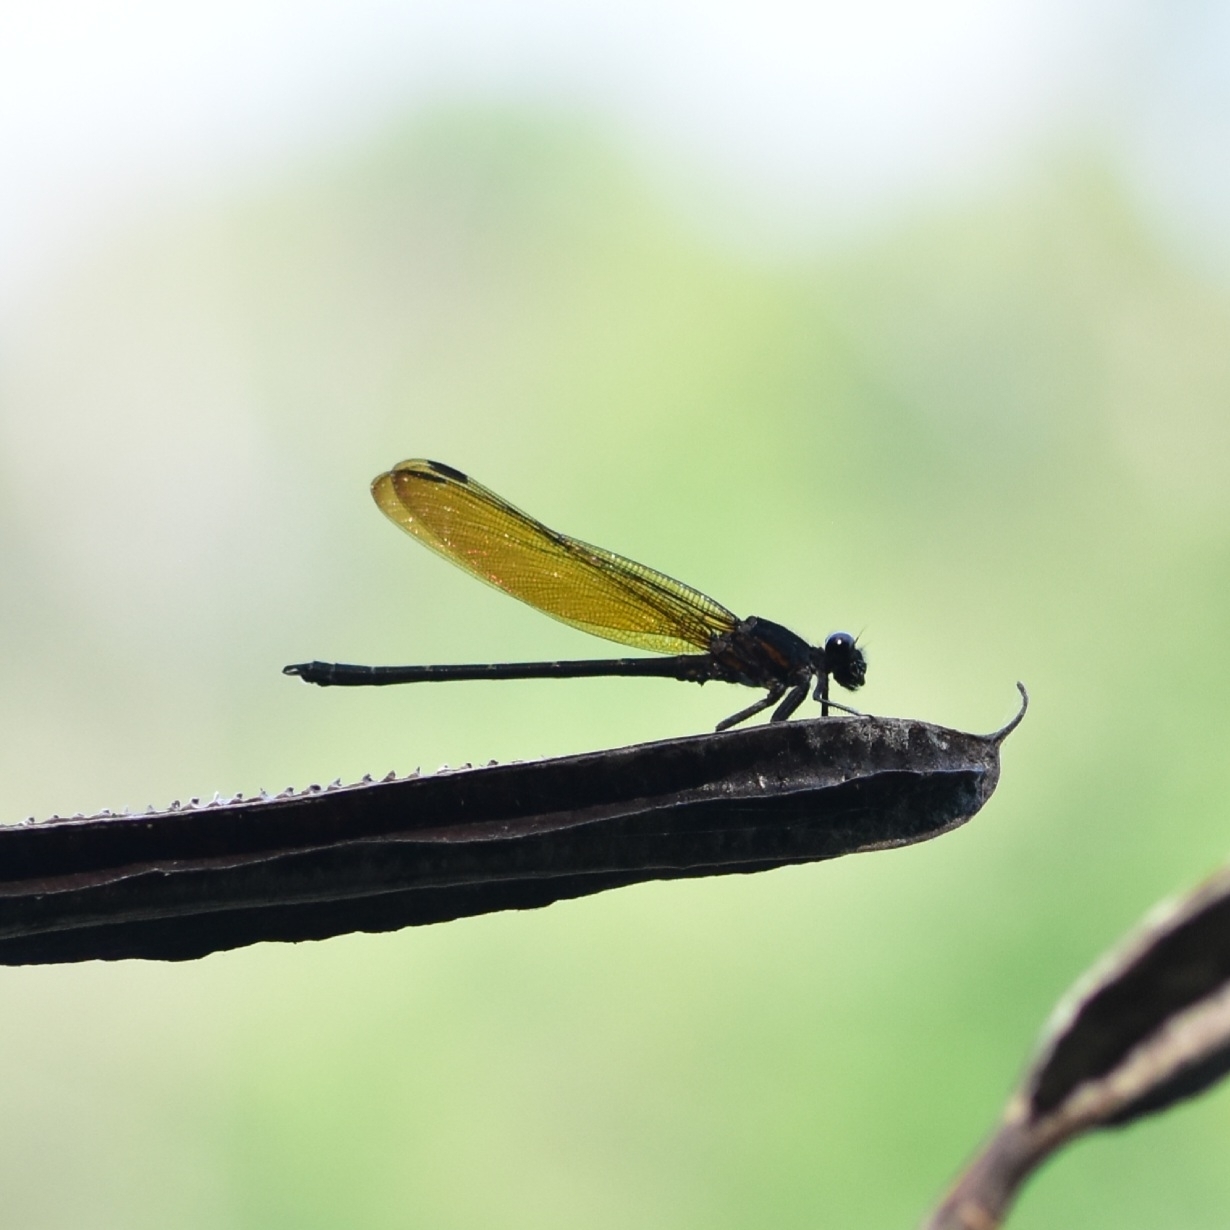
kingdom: Animalia
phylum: Arthropoda
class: Insecta
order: Odonata
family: Euphaeidae
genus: Dysphaea
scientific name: Dysphaea ethela
